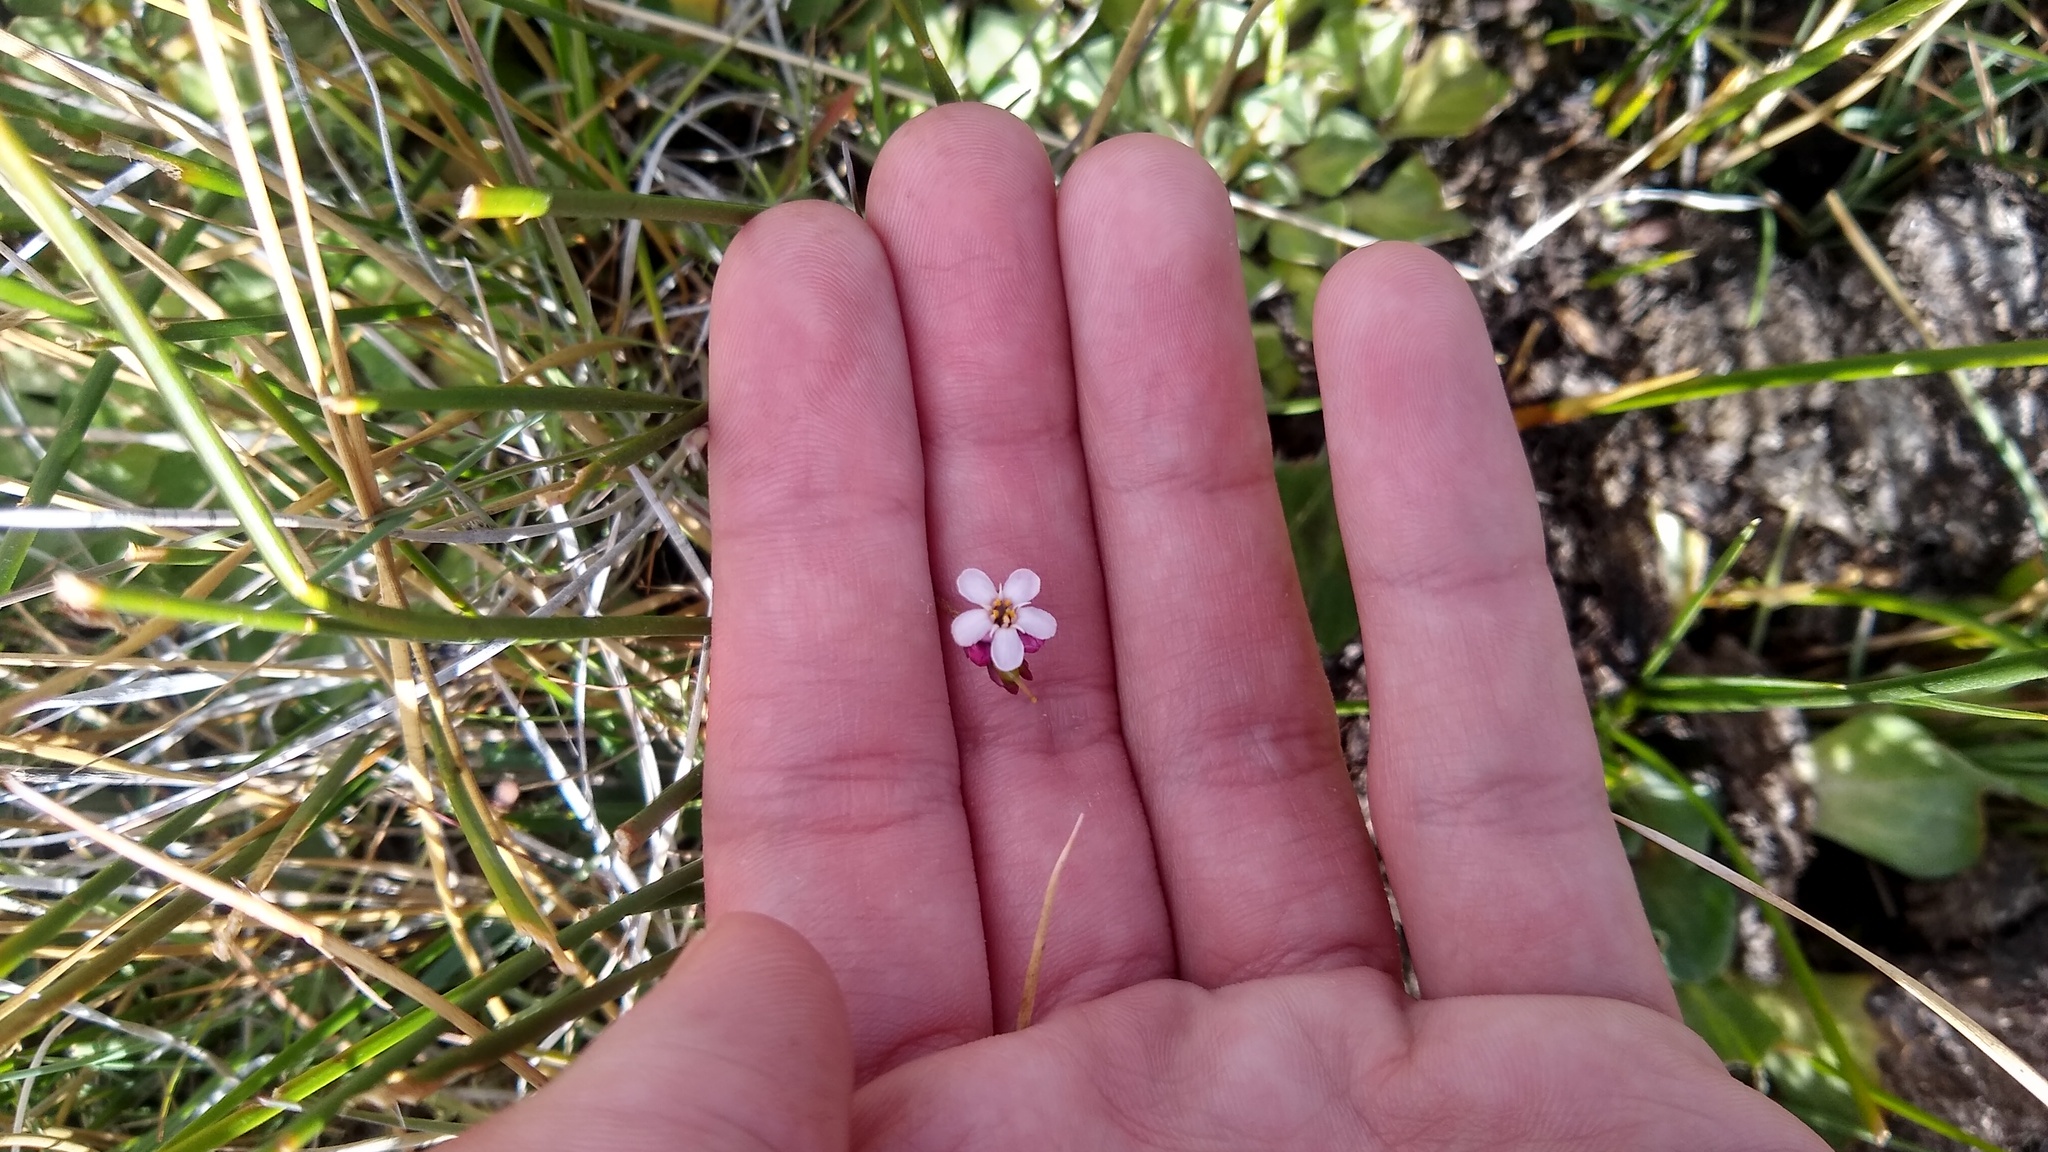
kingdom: Plantae
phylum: Tracheophyta
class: Magnoliopsida
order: Ericales
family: Primulaceae
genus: Samolus
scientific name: Samolus spathulatus
